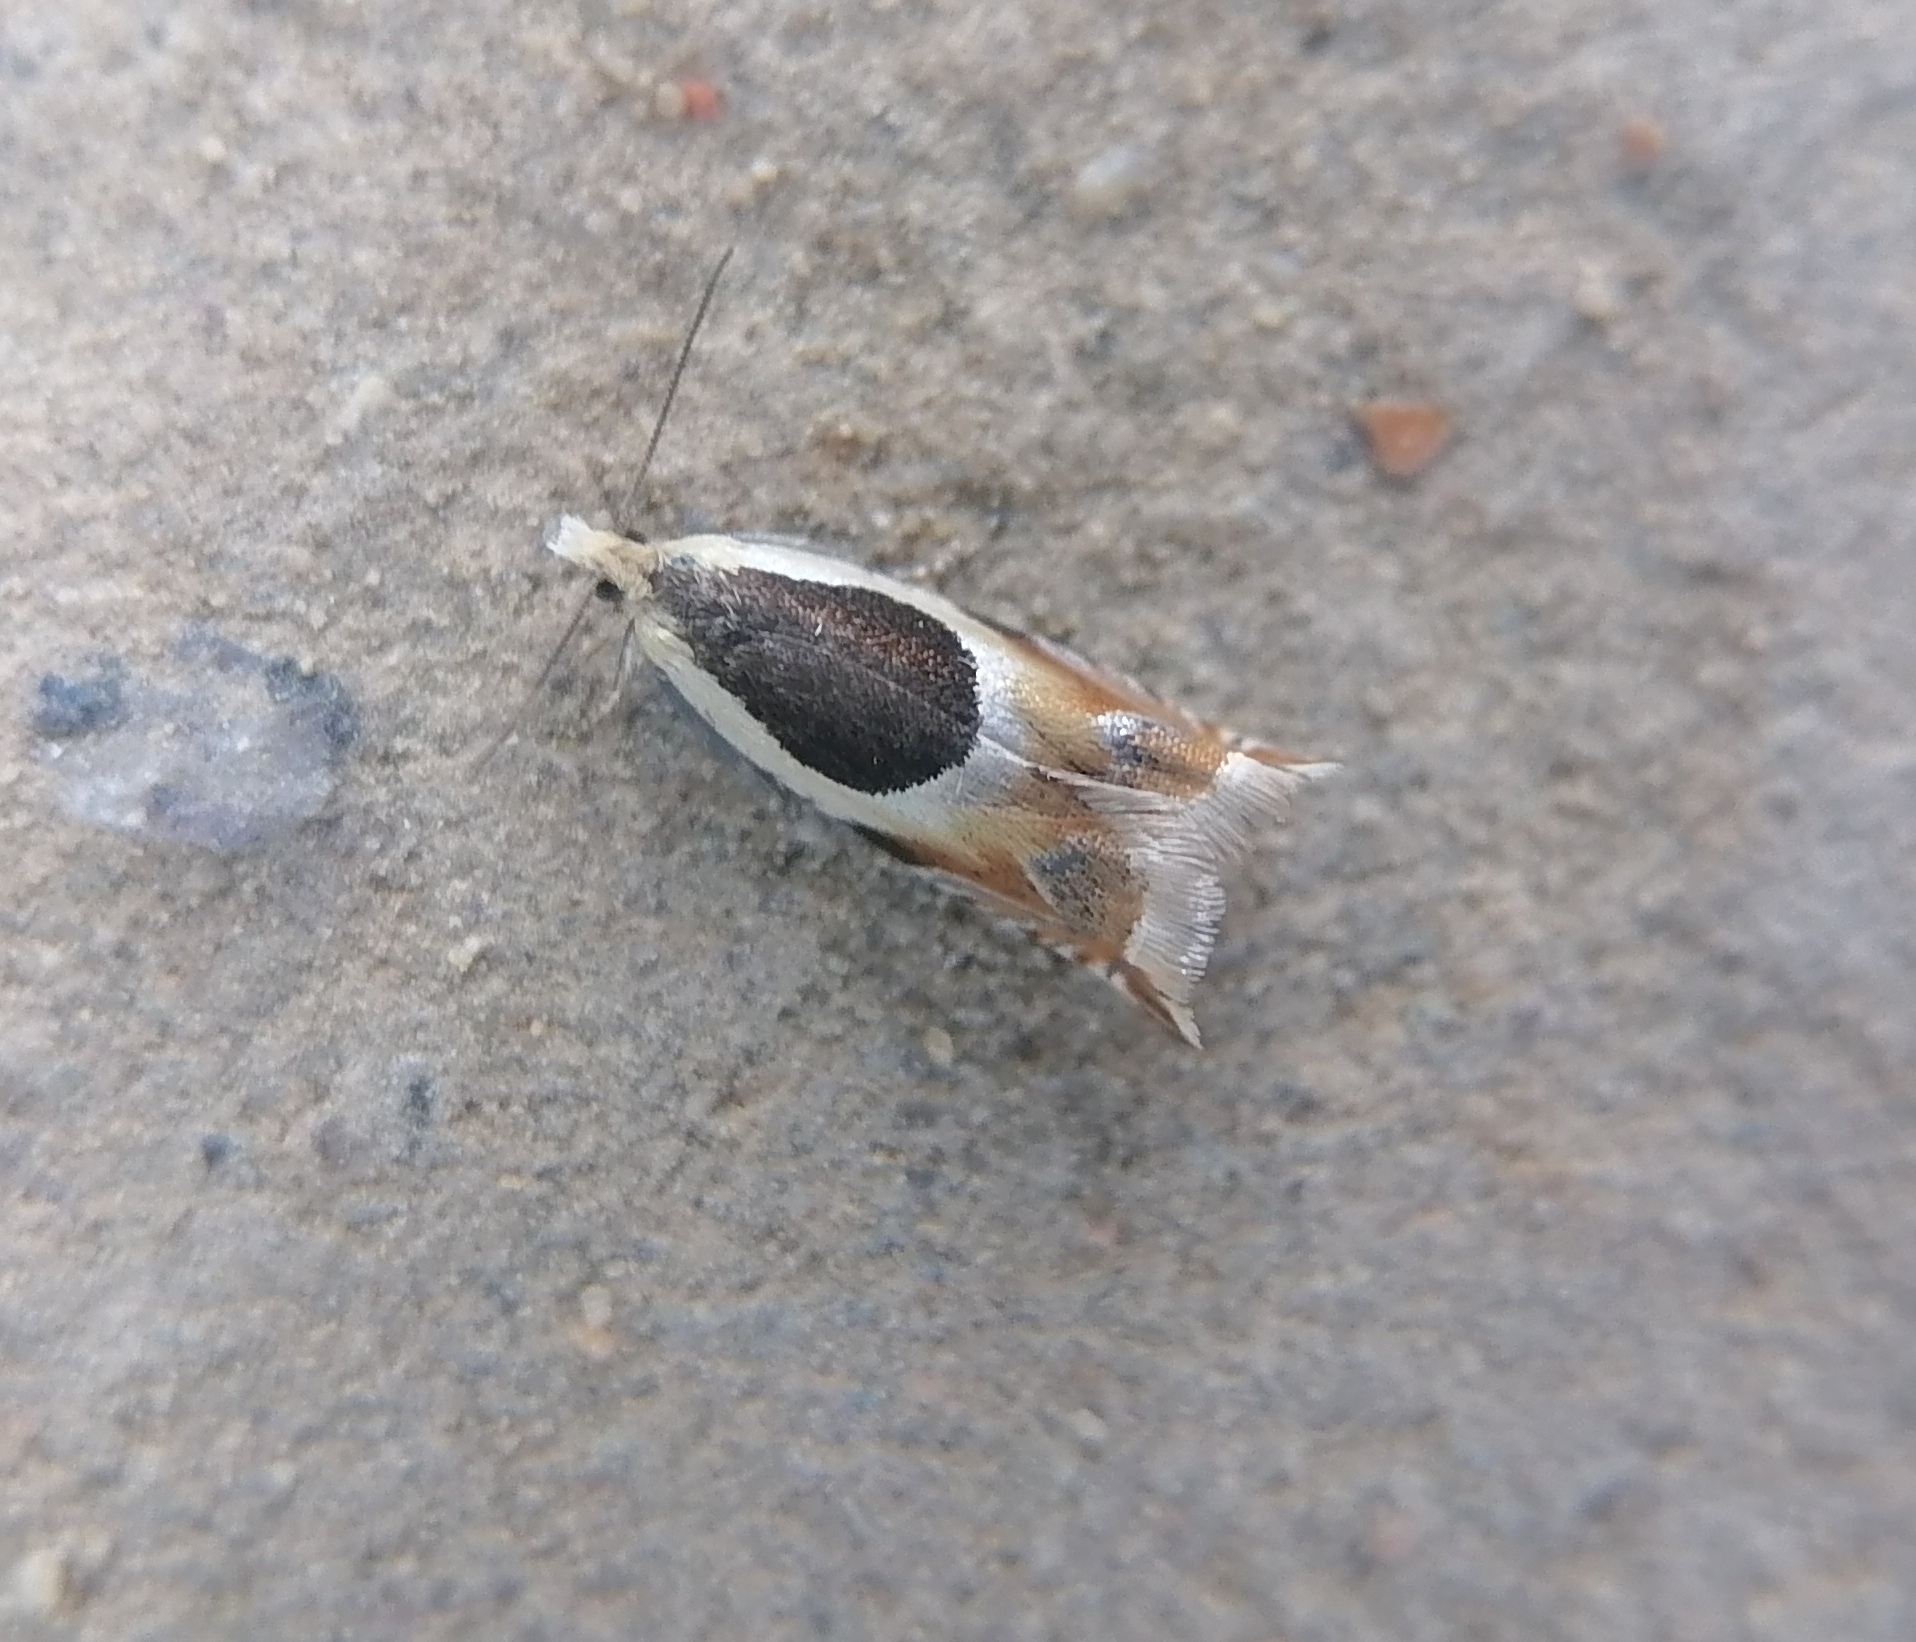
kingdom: Animalia
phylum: Arthropoda
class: Insecta
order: Lepidoptera
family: Tortricidae
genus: Ancylis
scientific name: Ancylis badiana
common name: Common roller
